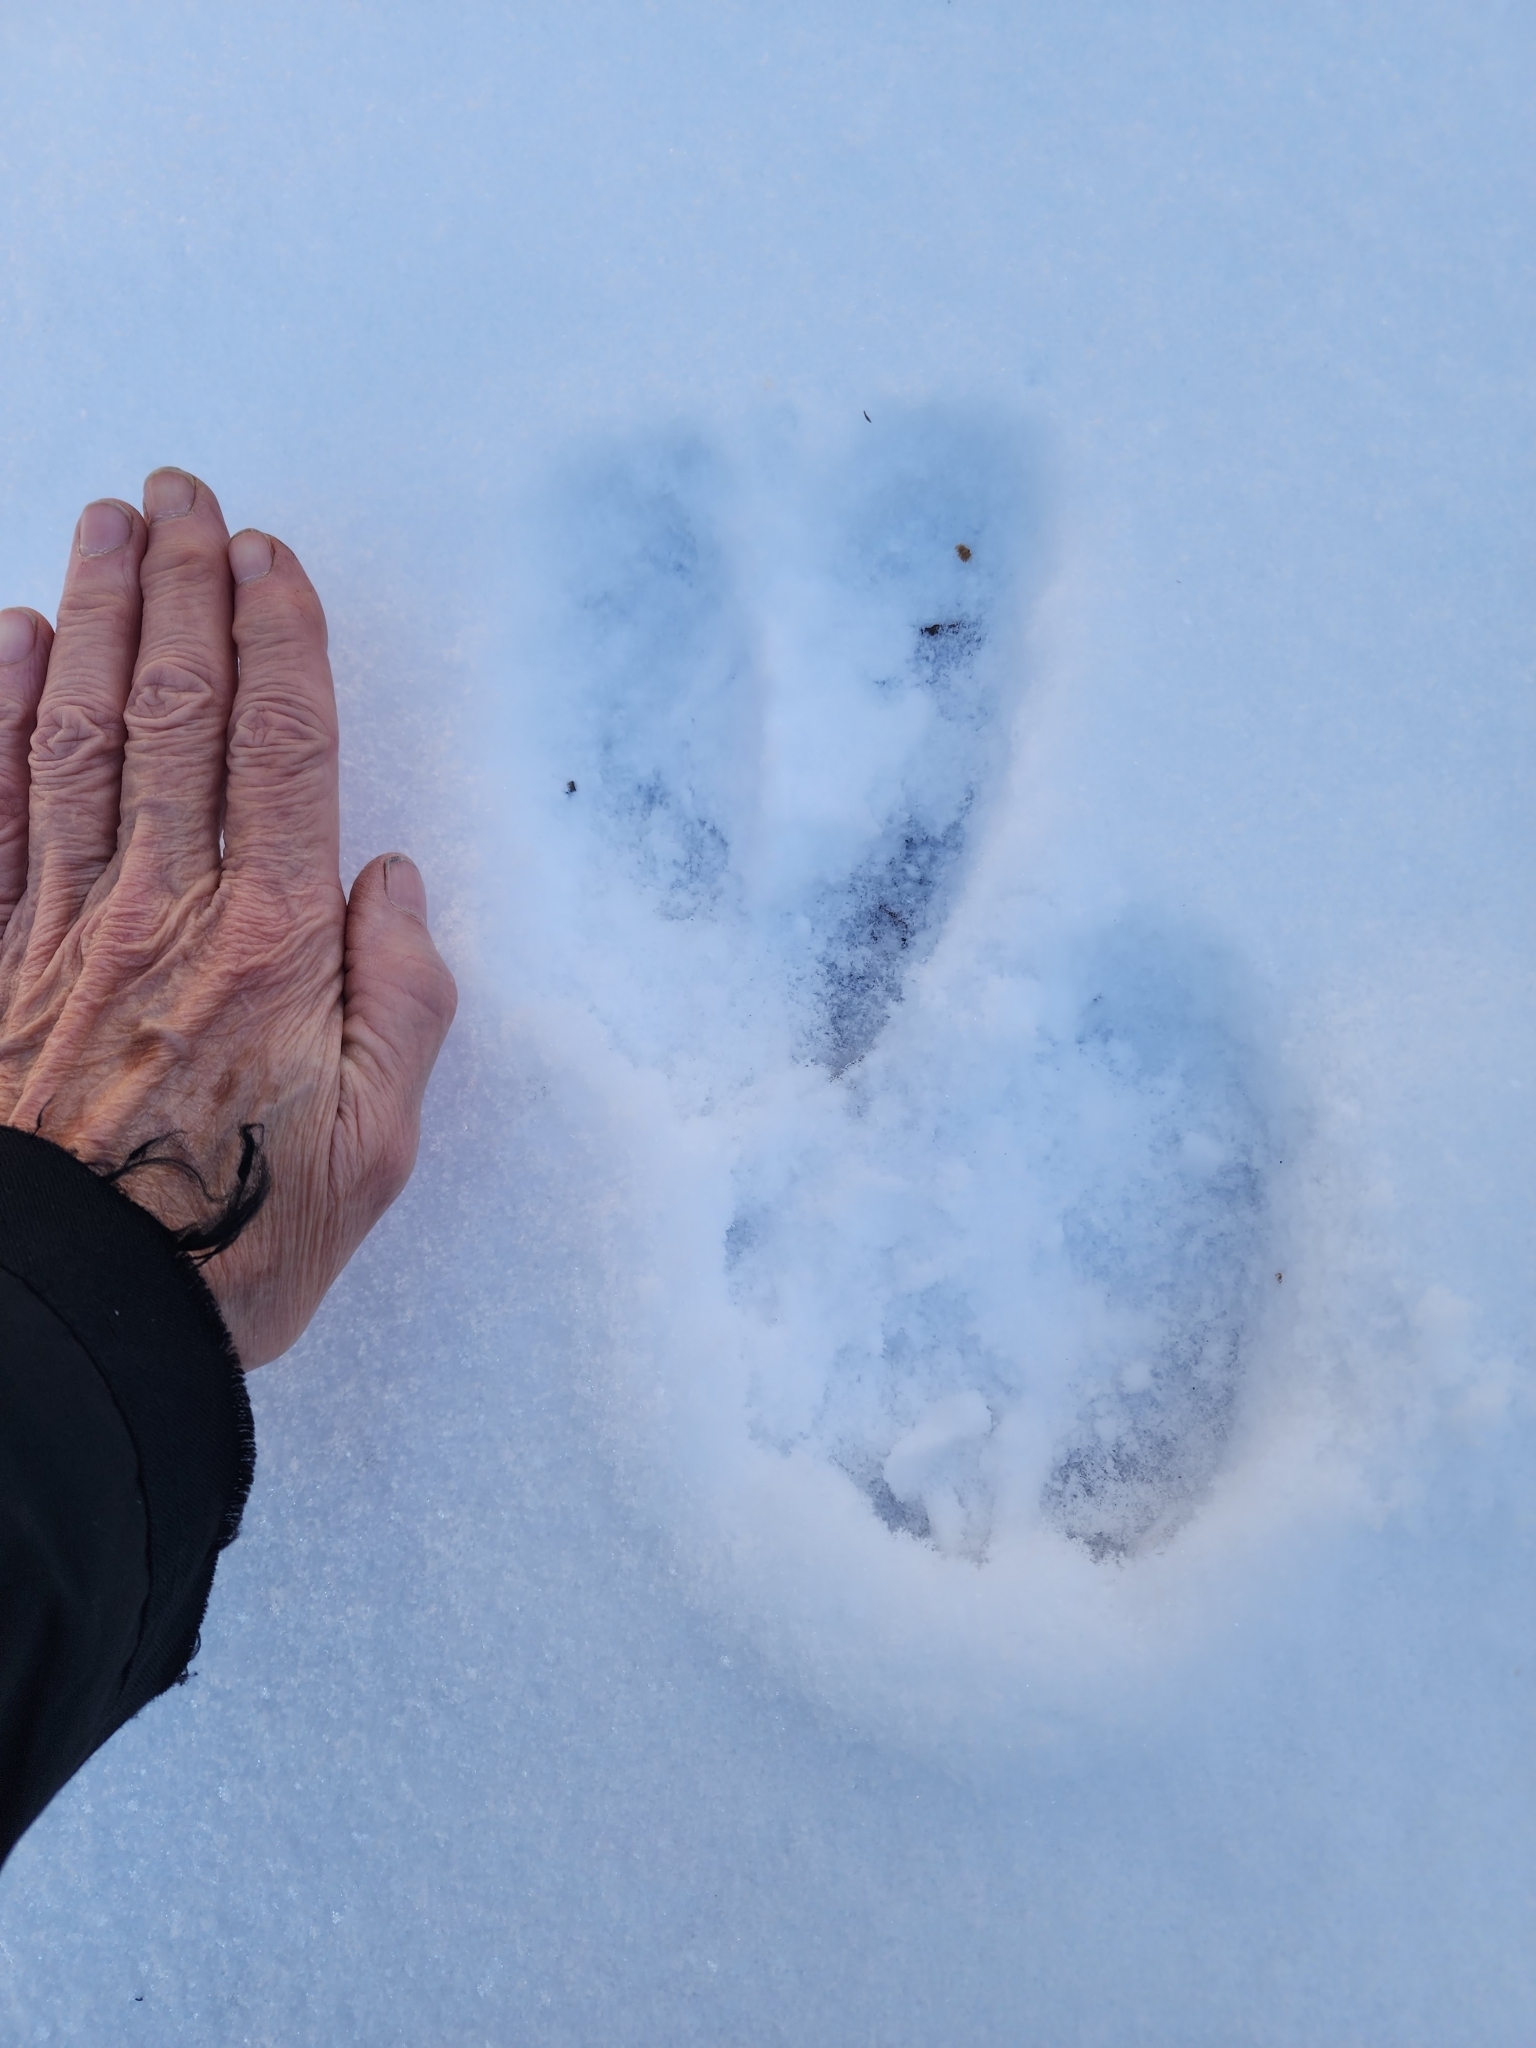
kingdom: Animalia
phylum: Chordata
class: Mammalia
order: Artiodactyla
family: Cervidae
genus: Alces
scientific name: Alces alces
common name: Moose
